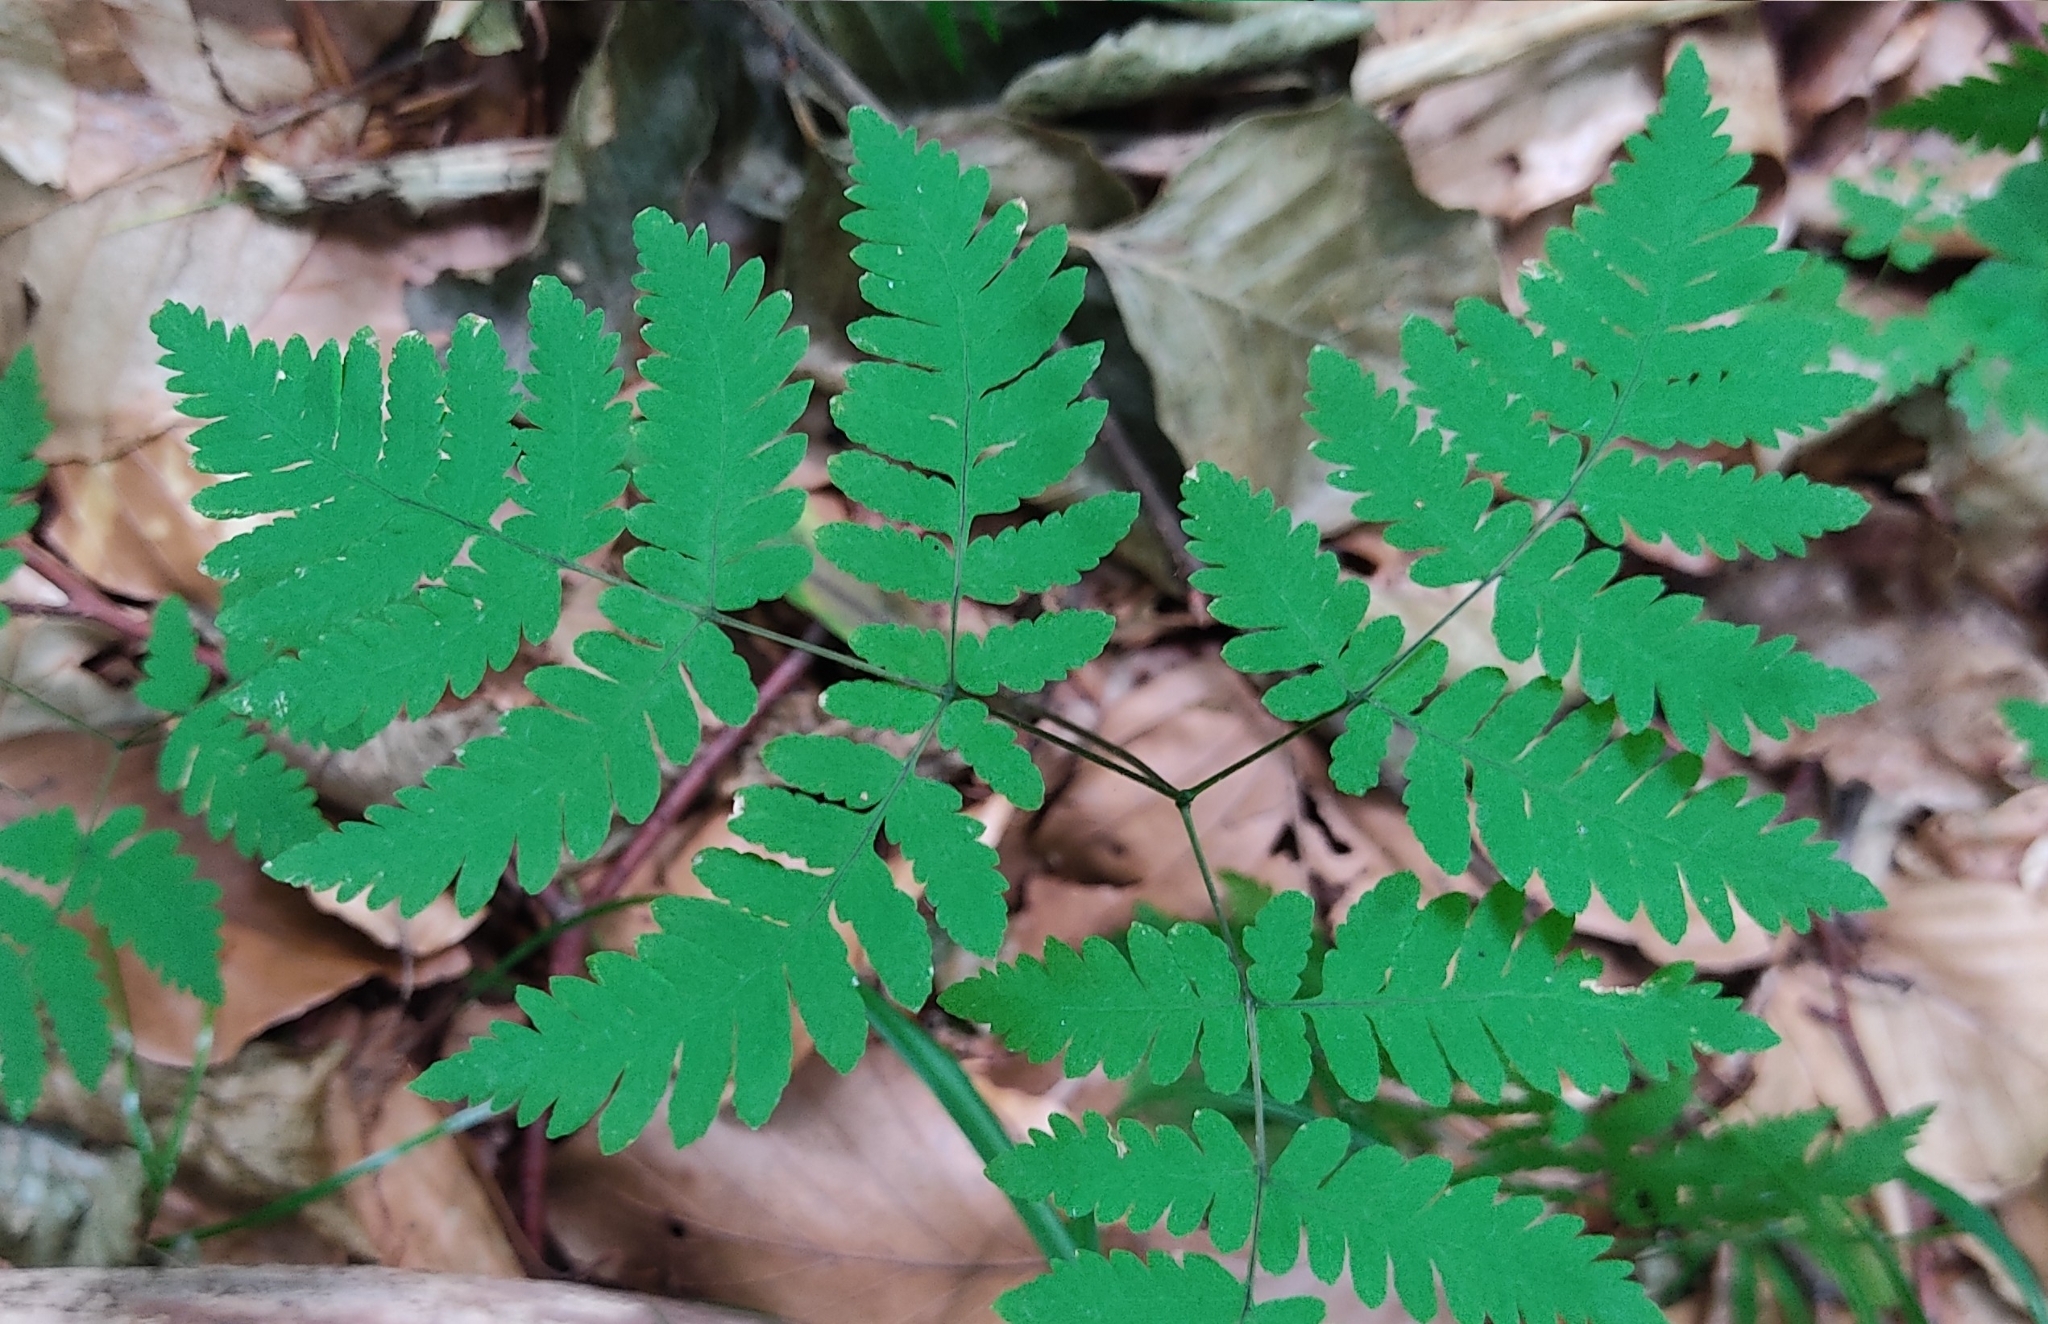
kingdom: Plantae
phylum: Tracheophyta
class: Polypodiopsida
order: Polypodiales
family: Cystopteridaceae
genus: Gymnocarpium
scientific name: Gymnocarpium dryopteris
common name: Oak fern
